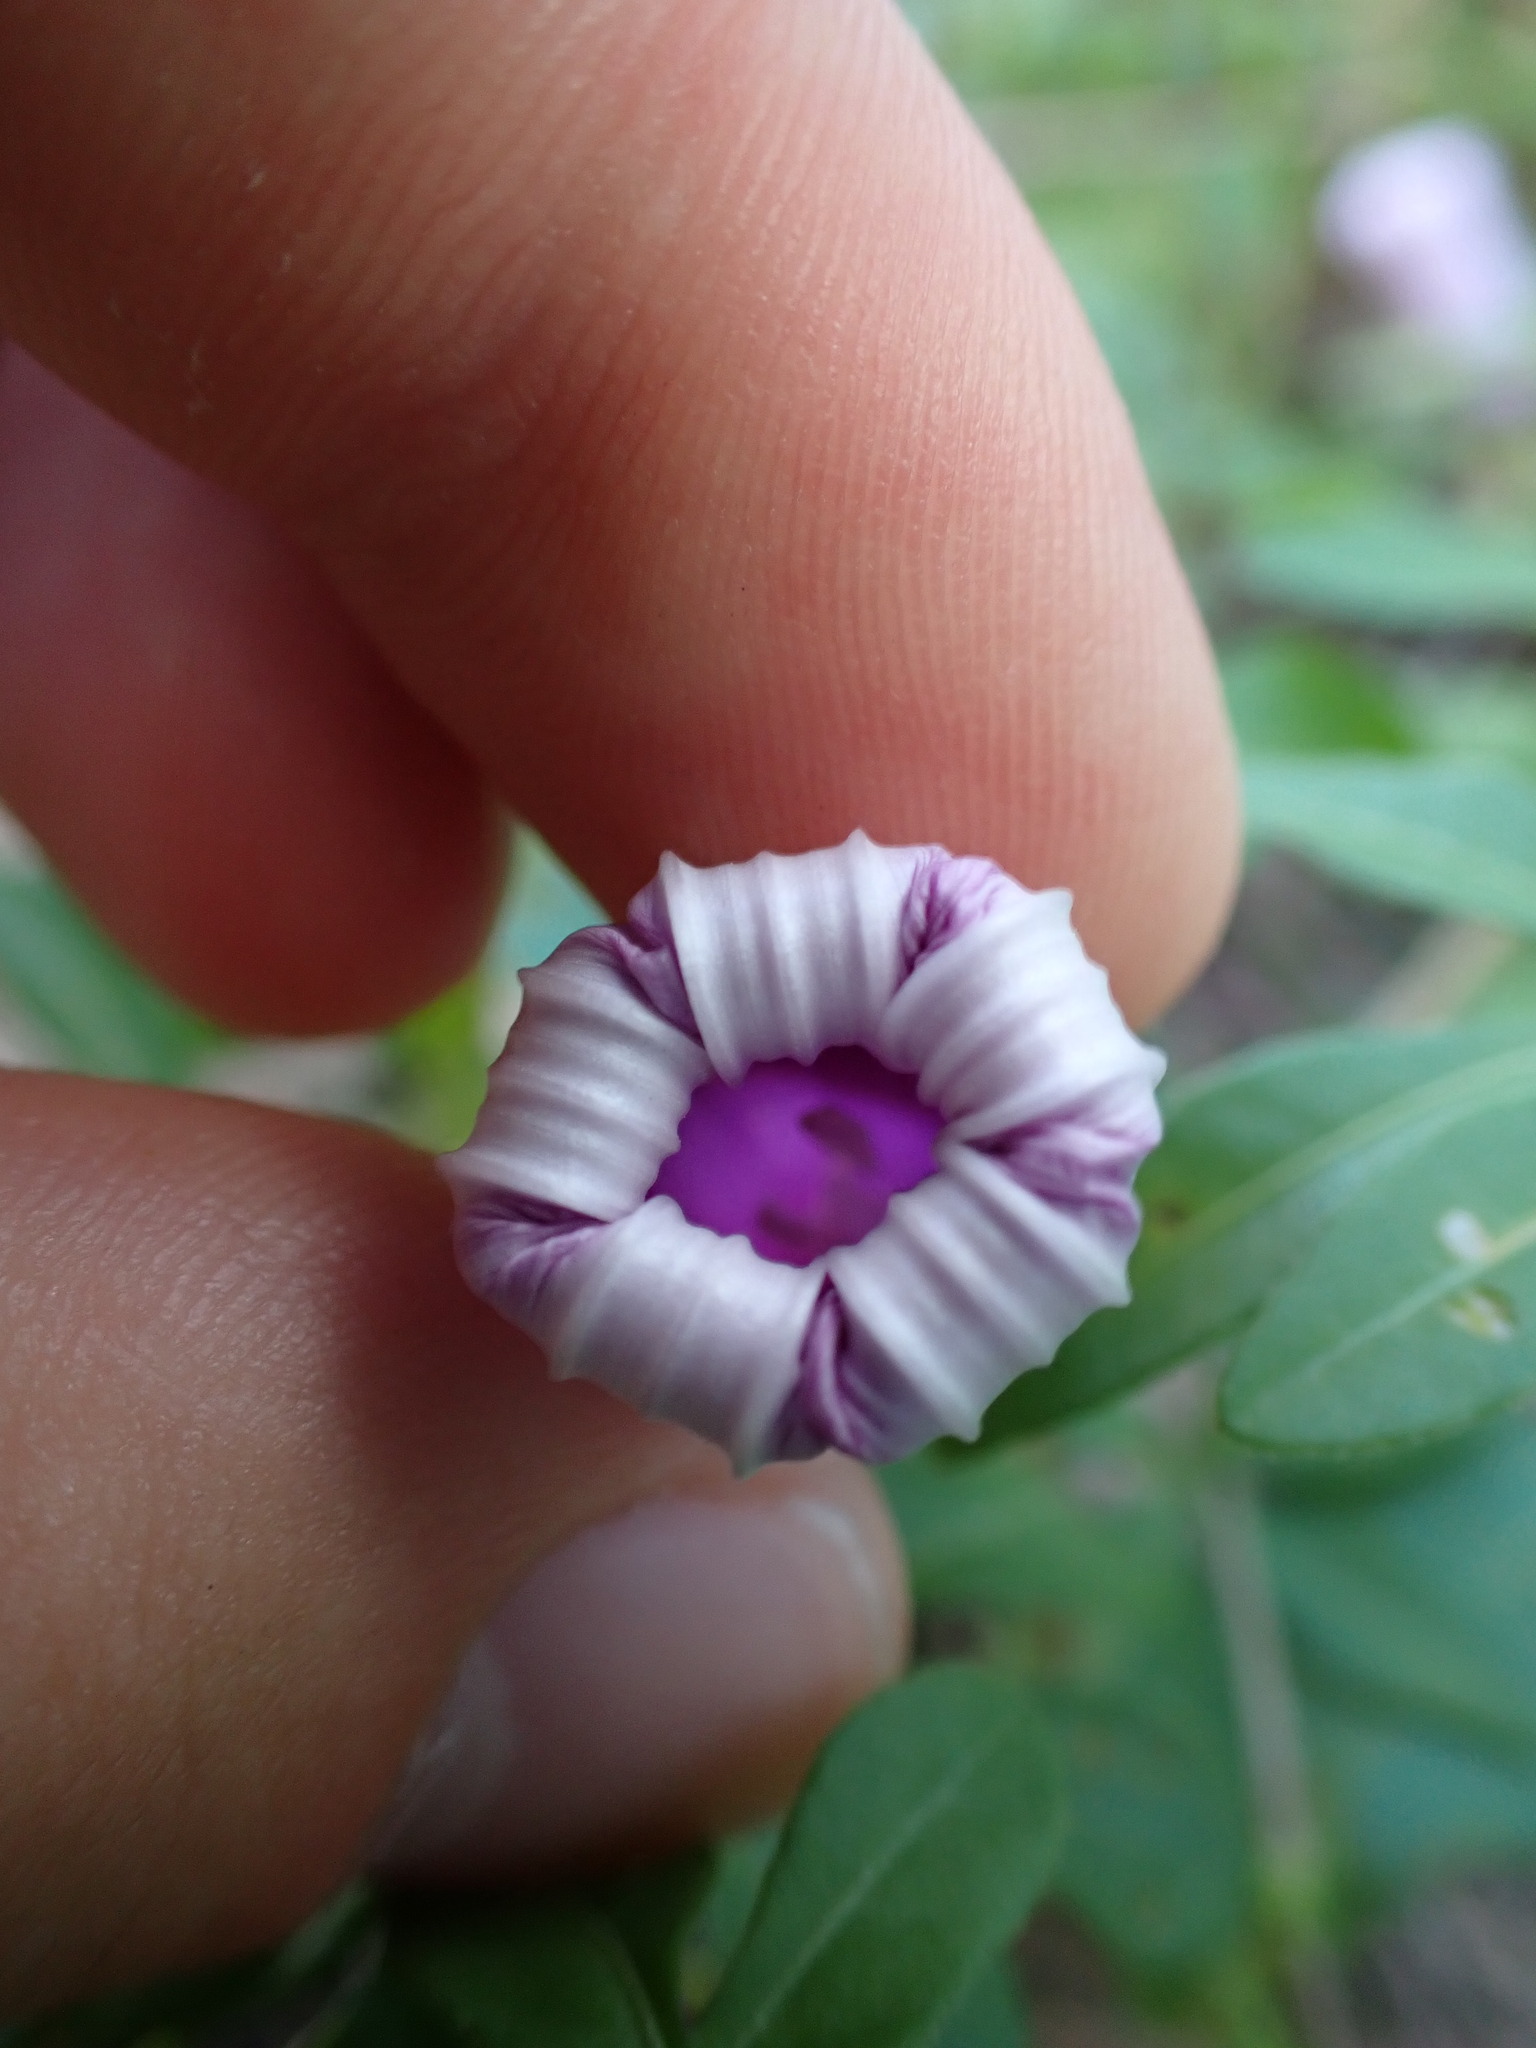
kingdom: Plantae
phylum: Tracheophyta
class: Magnoliopsida
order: Solanales
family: Convolvulaceae
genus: Ipomoea
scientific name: Ipomoea cairica
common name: Mile a minute vine
